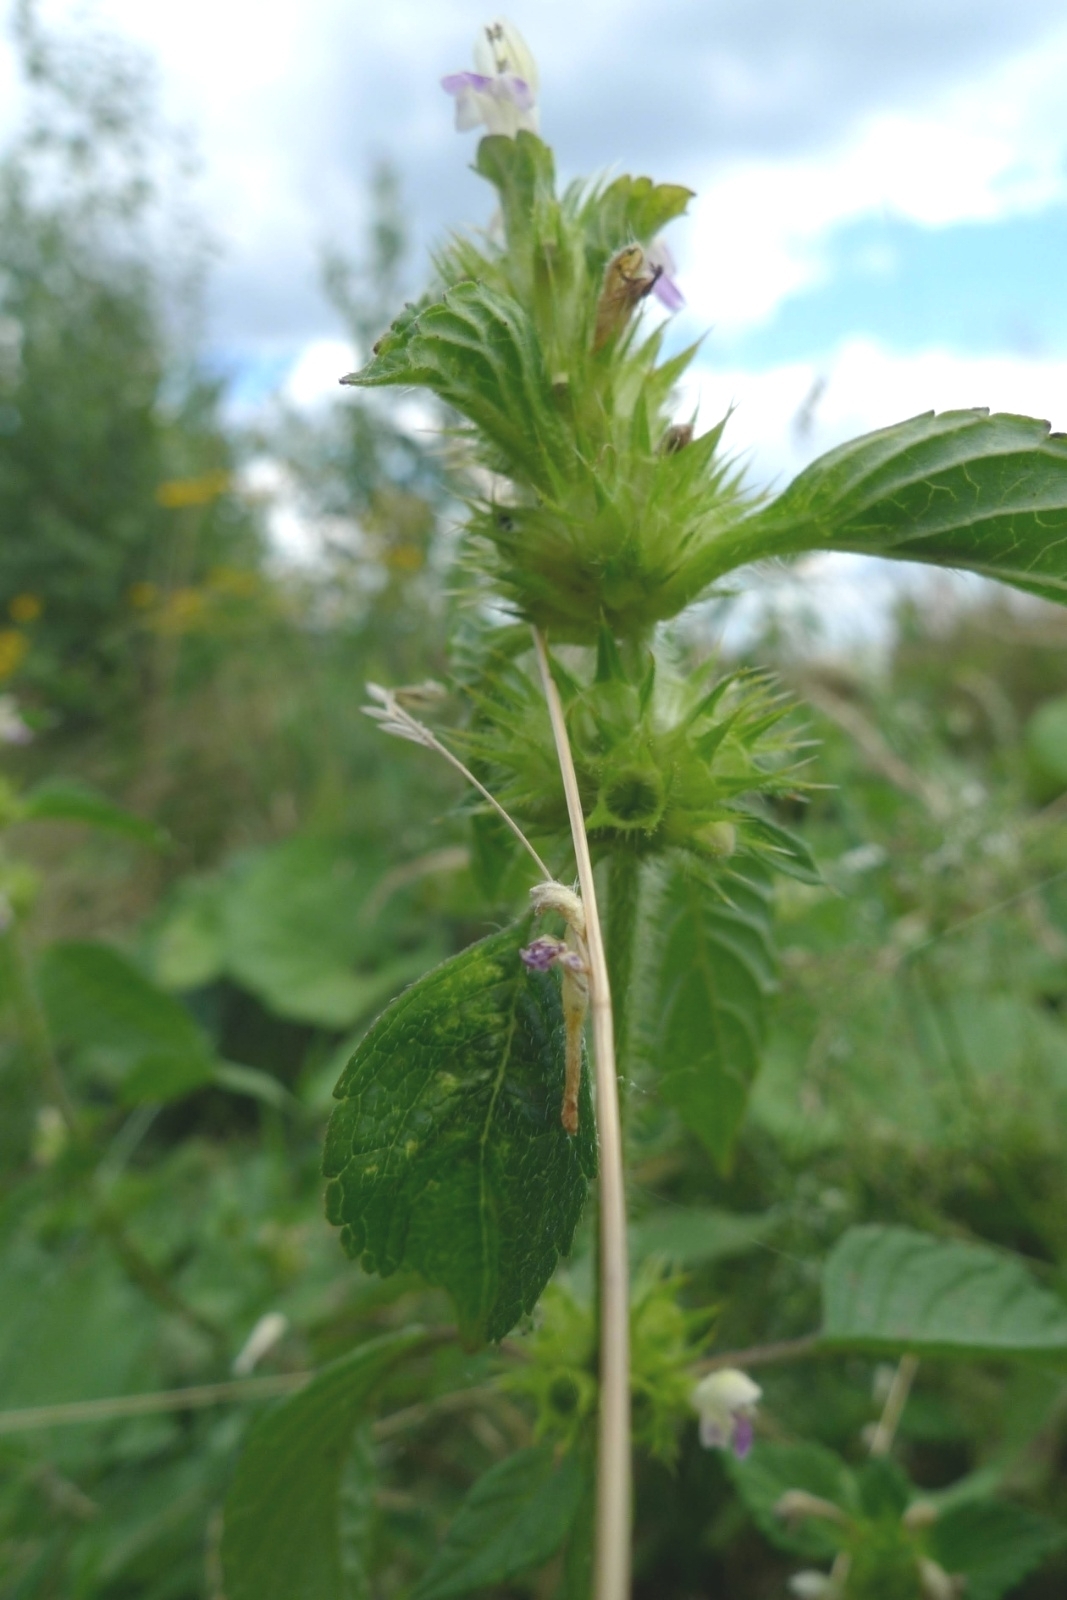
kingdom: Plantae
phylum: Tracheophyta
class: Magnoliopsida
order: Lamiales
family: Lamiaceae
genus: Galeopsis
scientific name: Galeopsis speciosa
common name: Large-flowered hemp-nettle
